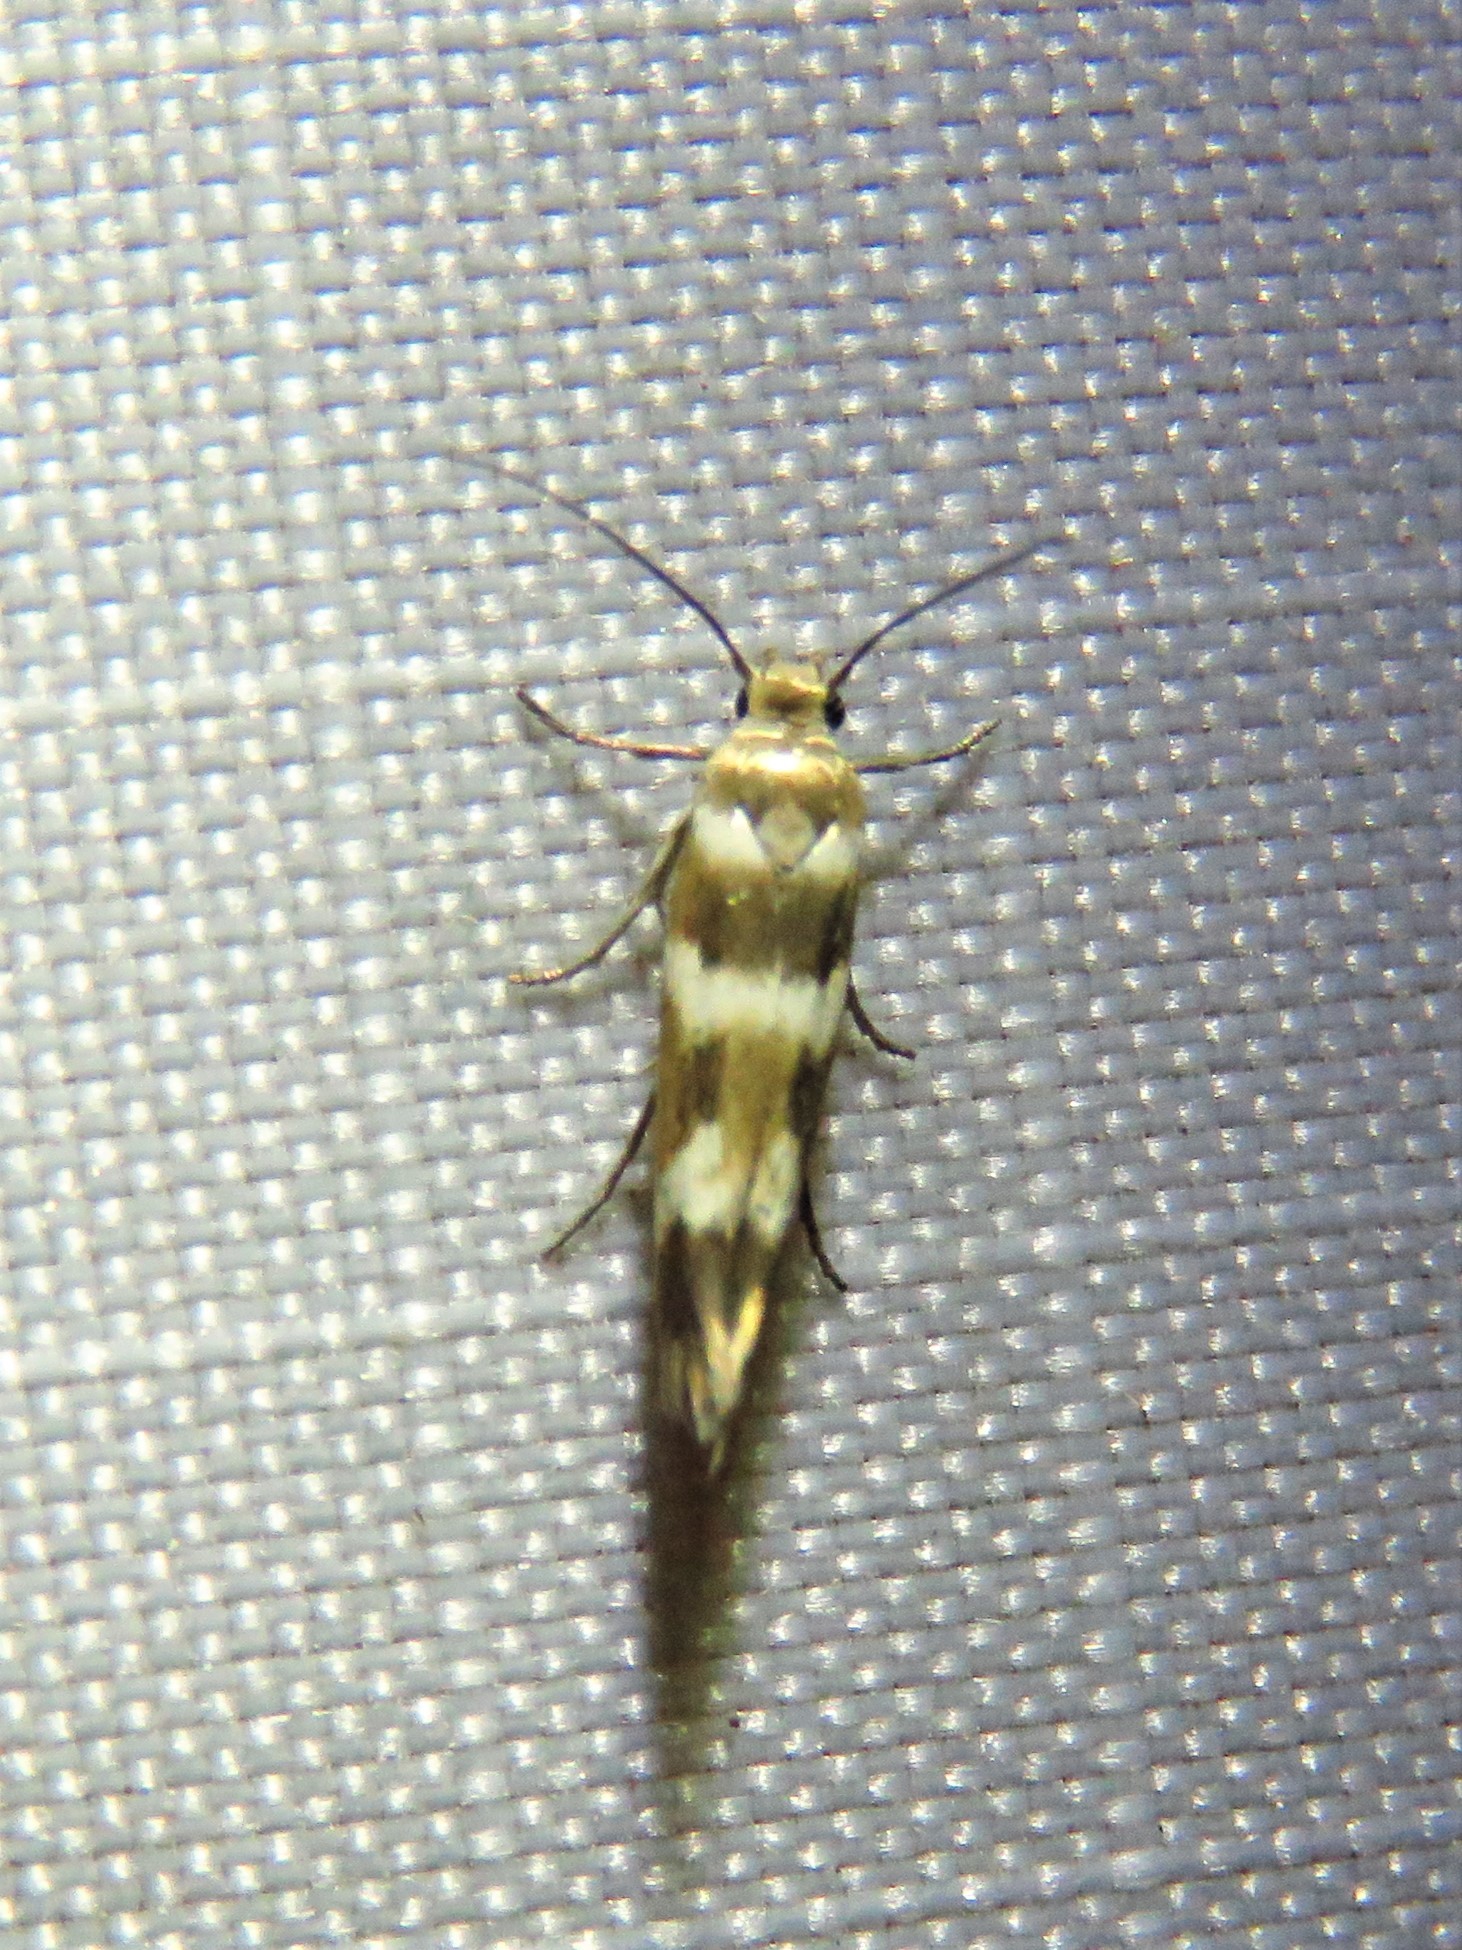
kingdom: Animalia
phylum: Arthropoda
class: Insecta
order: Lepidoptera
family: Scythrididae
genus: Scythris
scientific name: Scythris trivinctella
